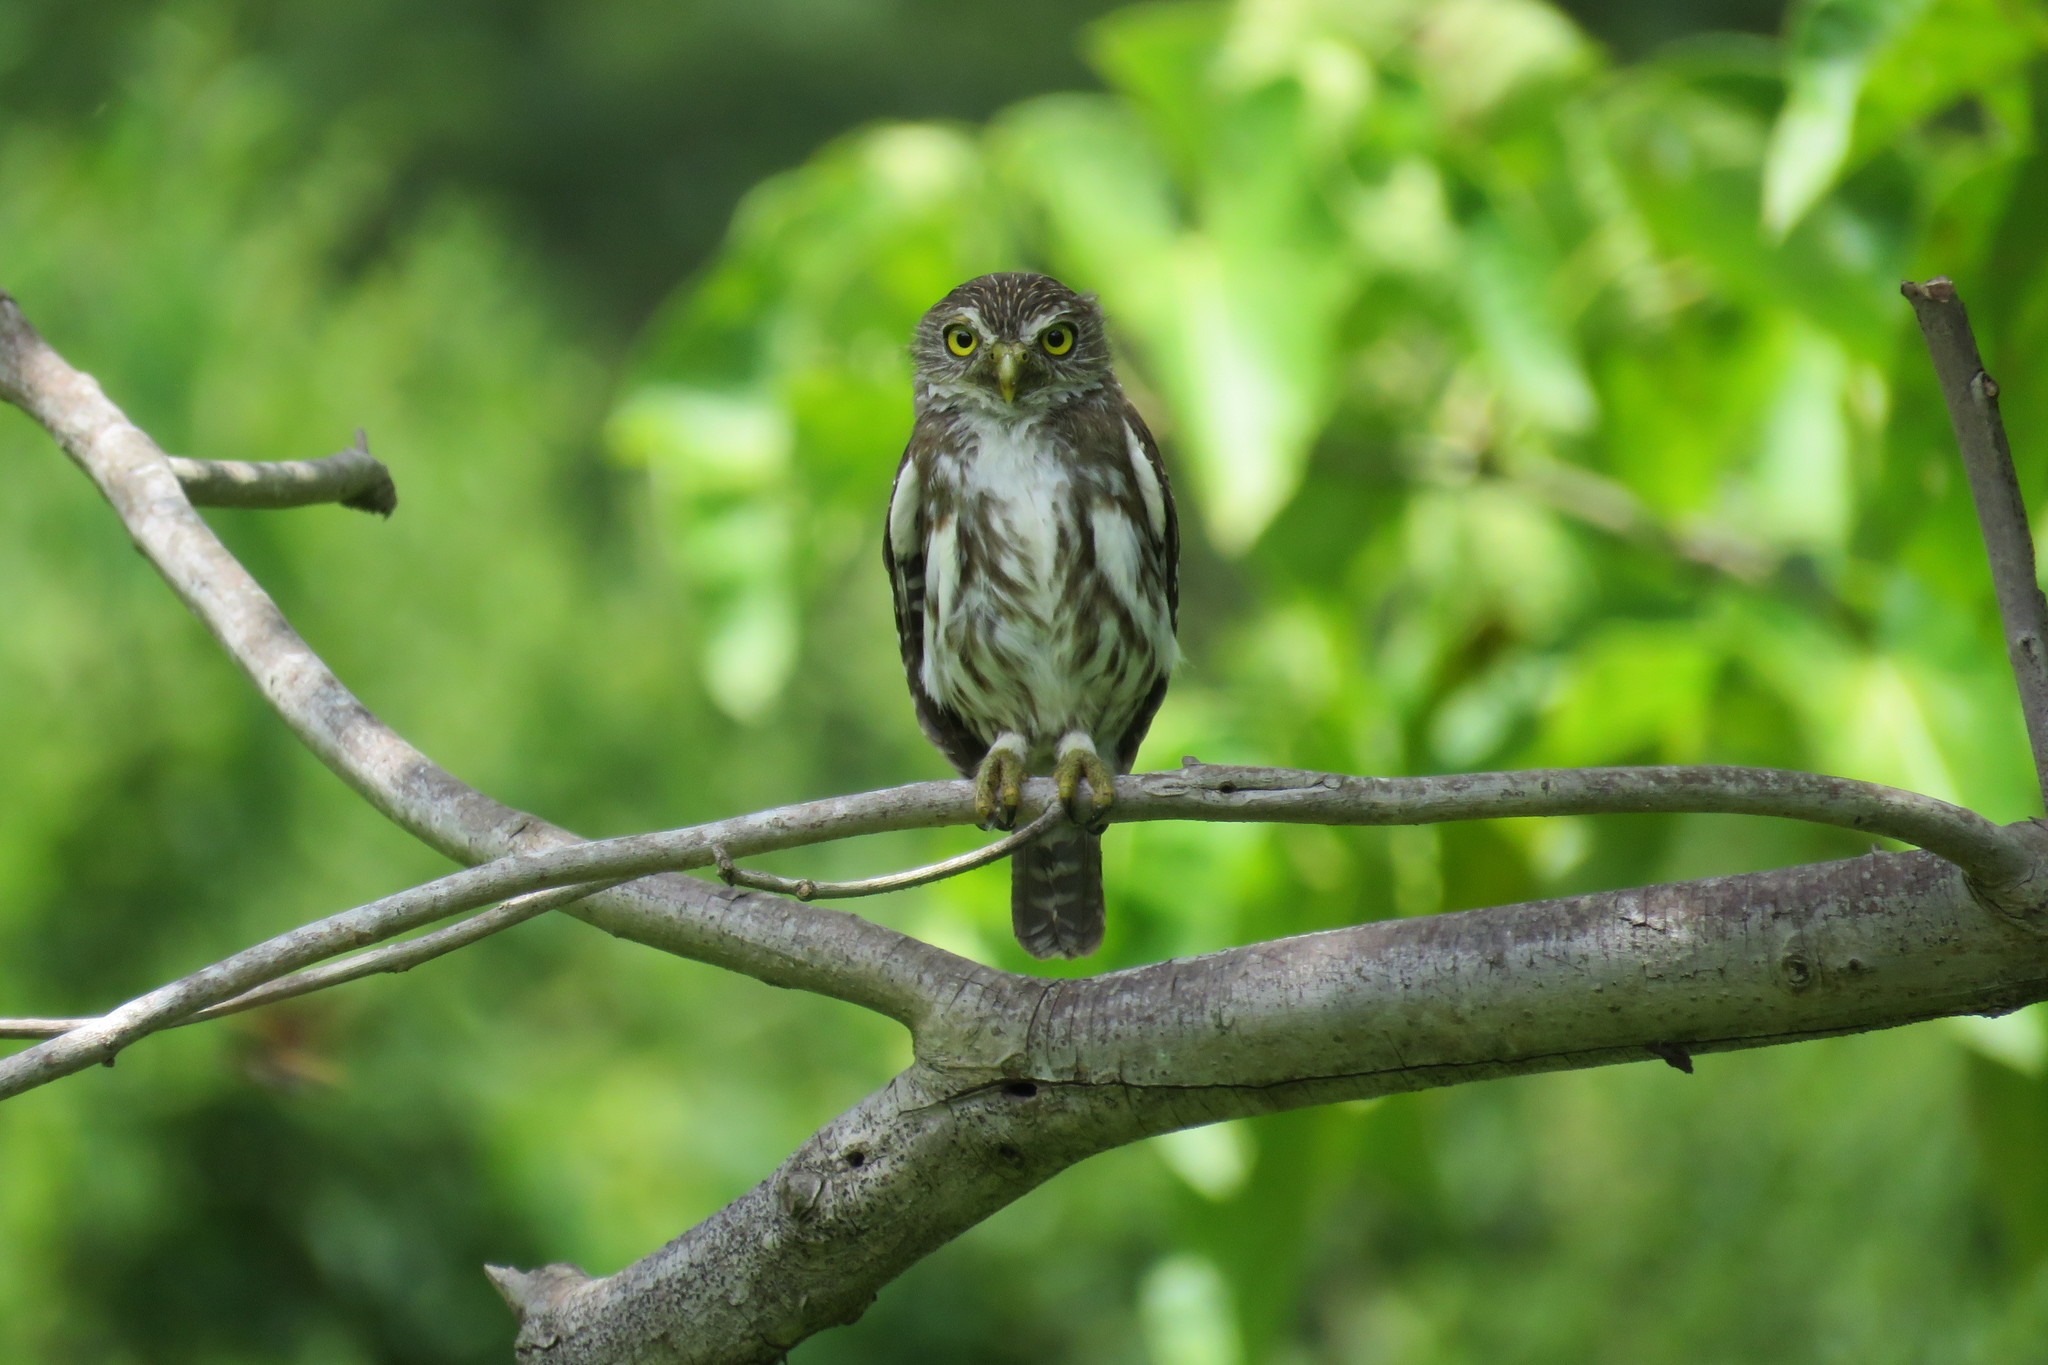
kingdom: Animalia
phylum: Chordata
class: Aves
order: Strigiformes
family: Strigidae
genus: Glaucidium
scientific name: Glaucidium brasilianum
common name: Ferruginous pygmy-owl
